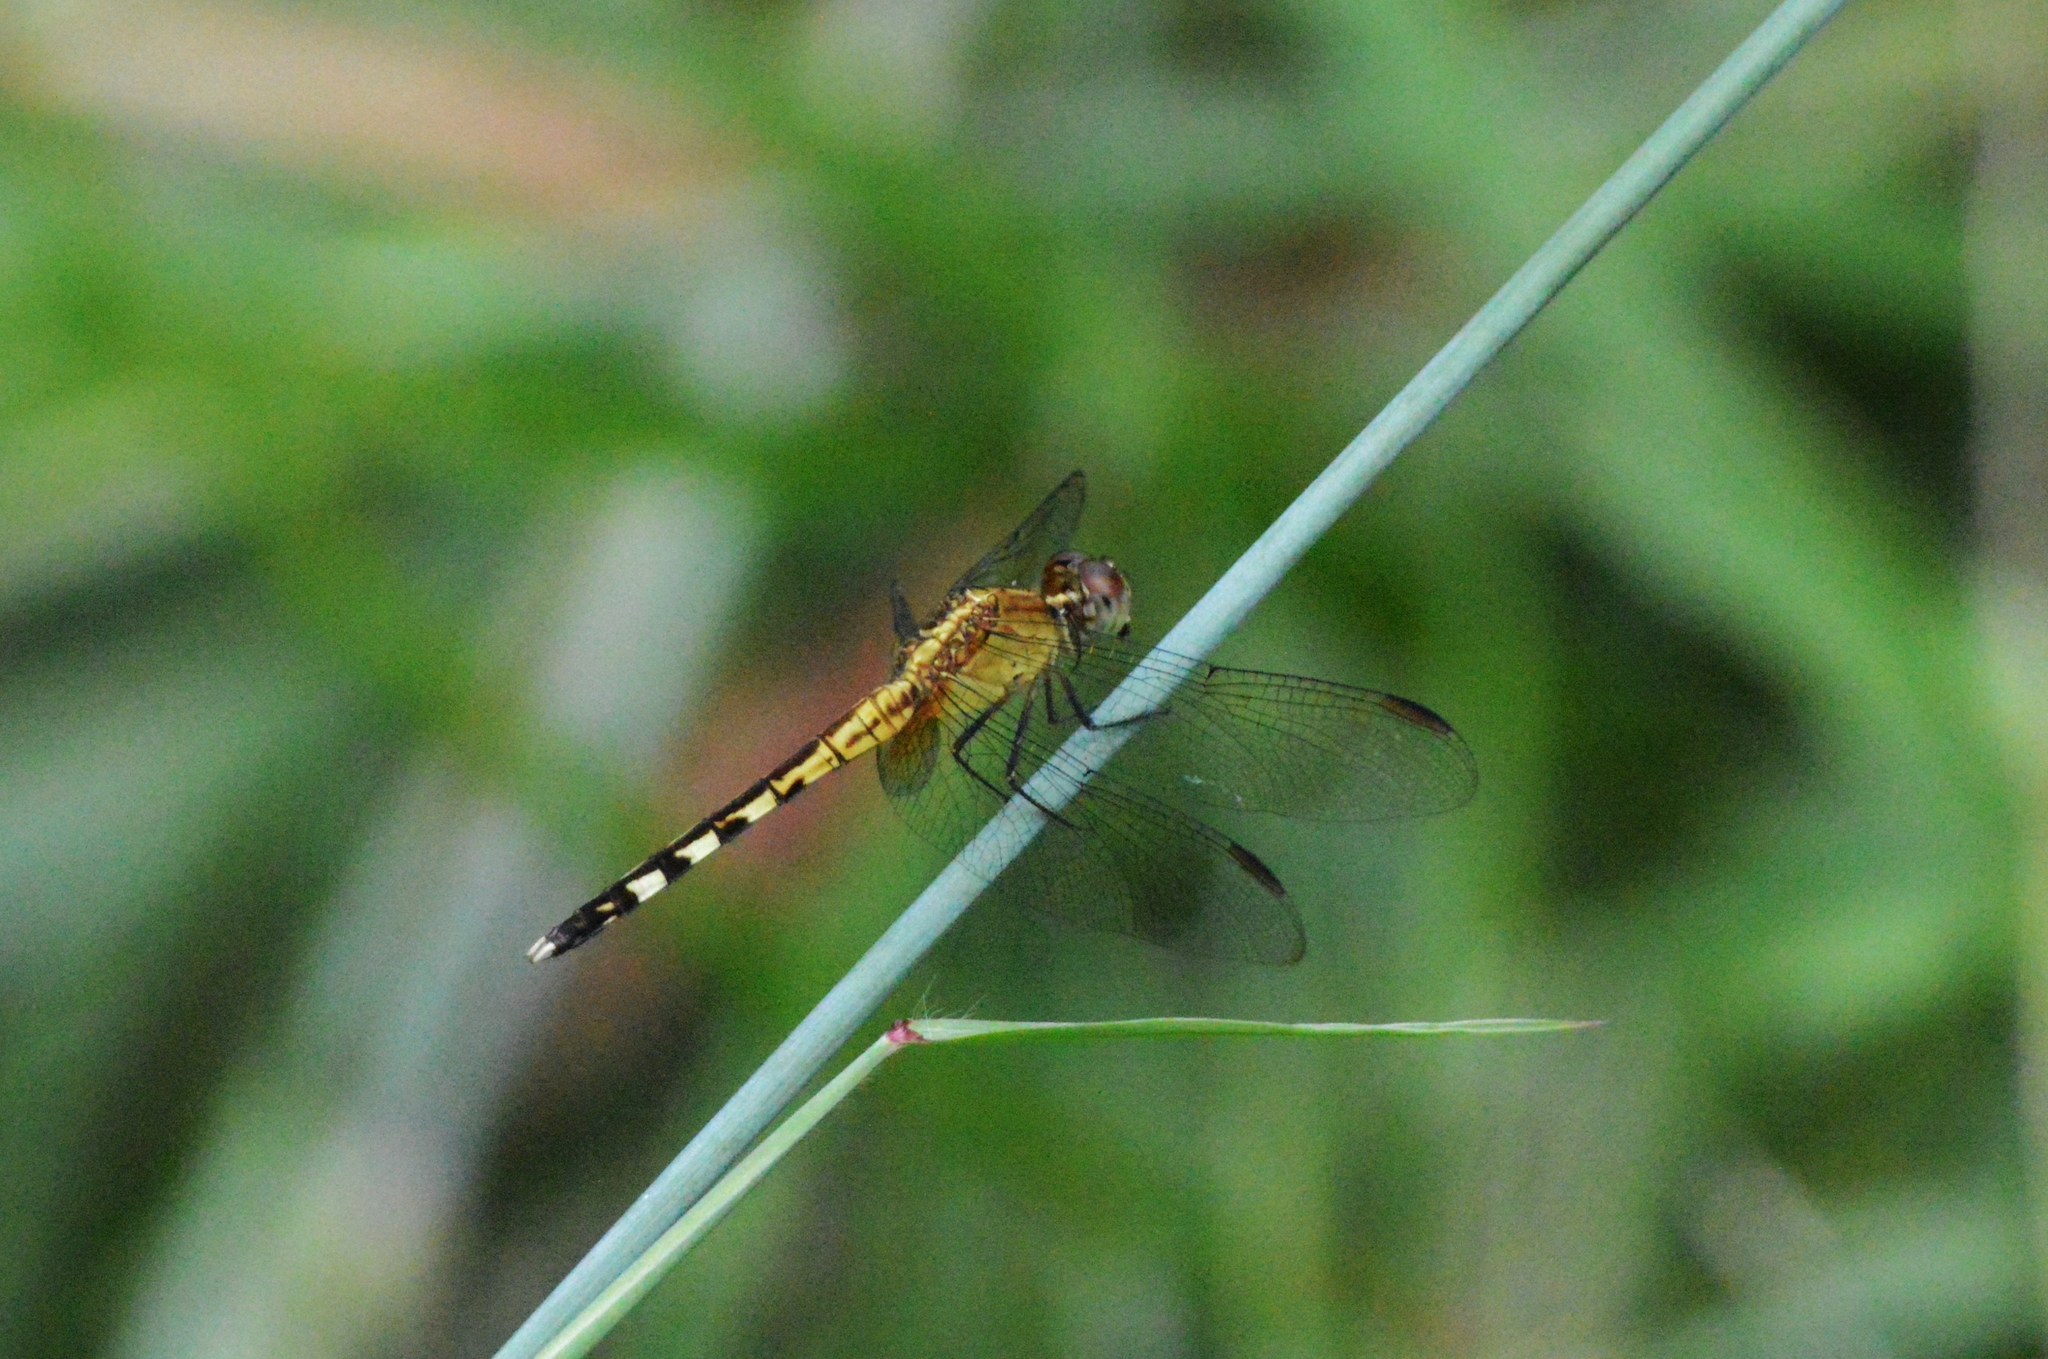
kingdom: Animalia
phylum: Arthropoda
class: Insecta
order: Odonata
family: Libellulidae
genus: Erythrodiplax
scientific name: Erythrodiplax umbrata
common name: Band-winged dragonlet
